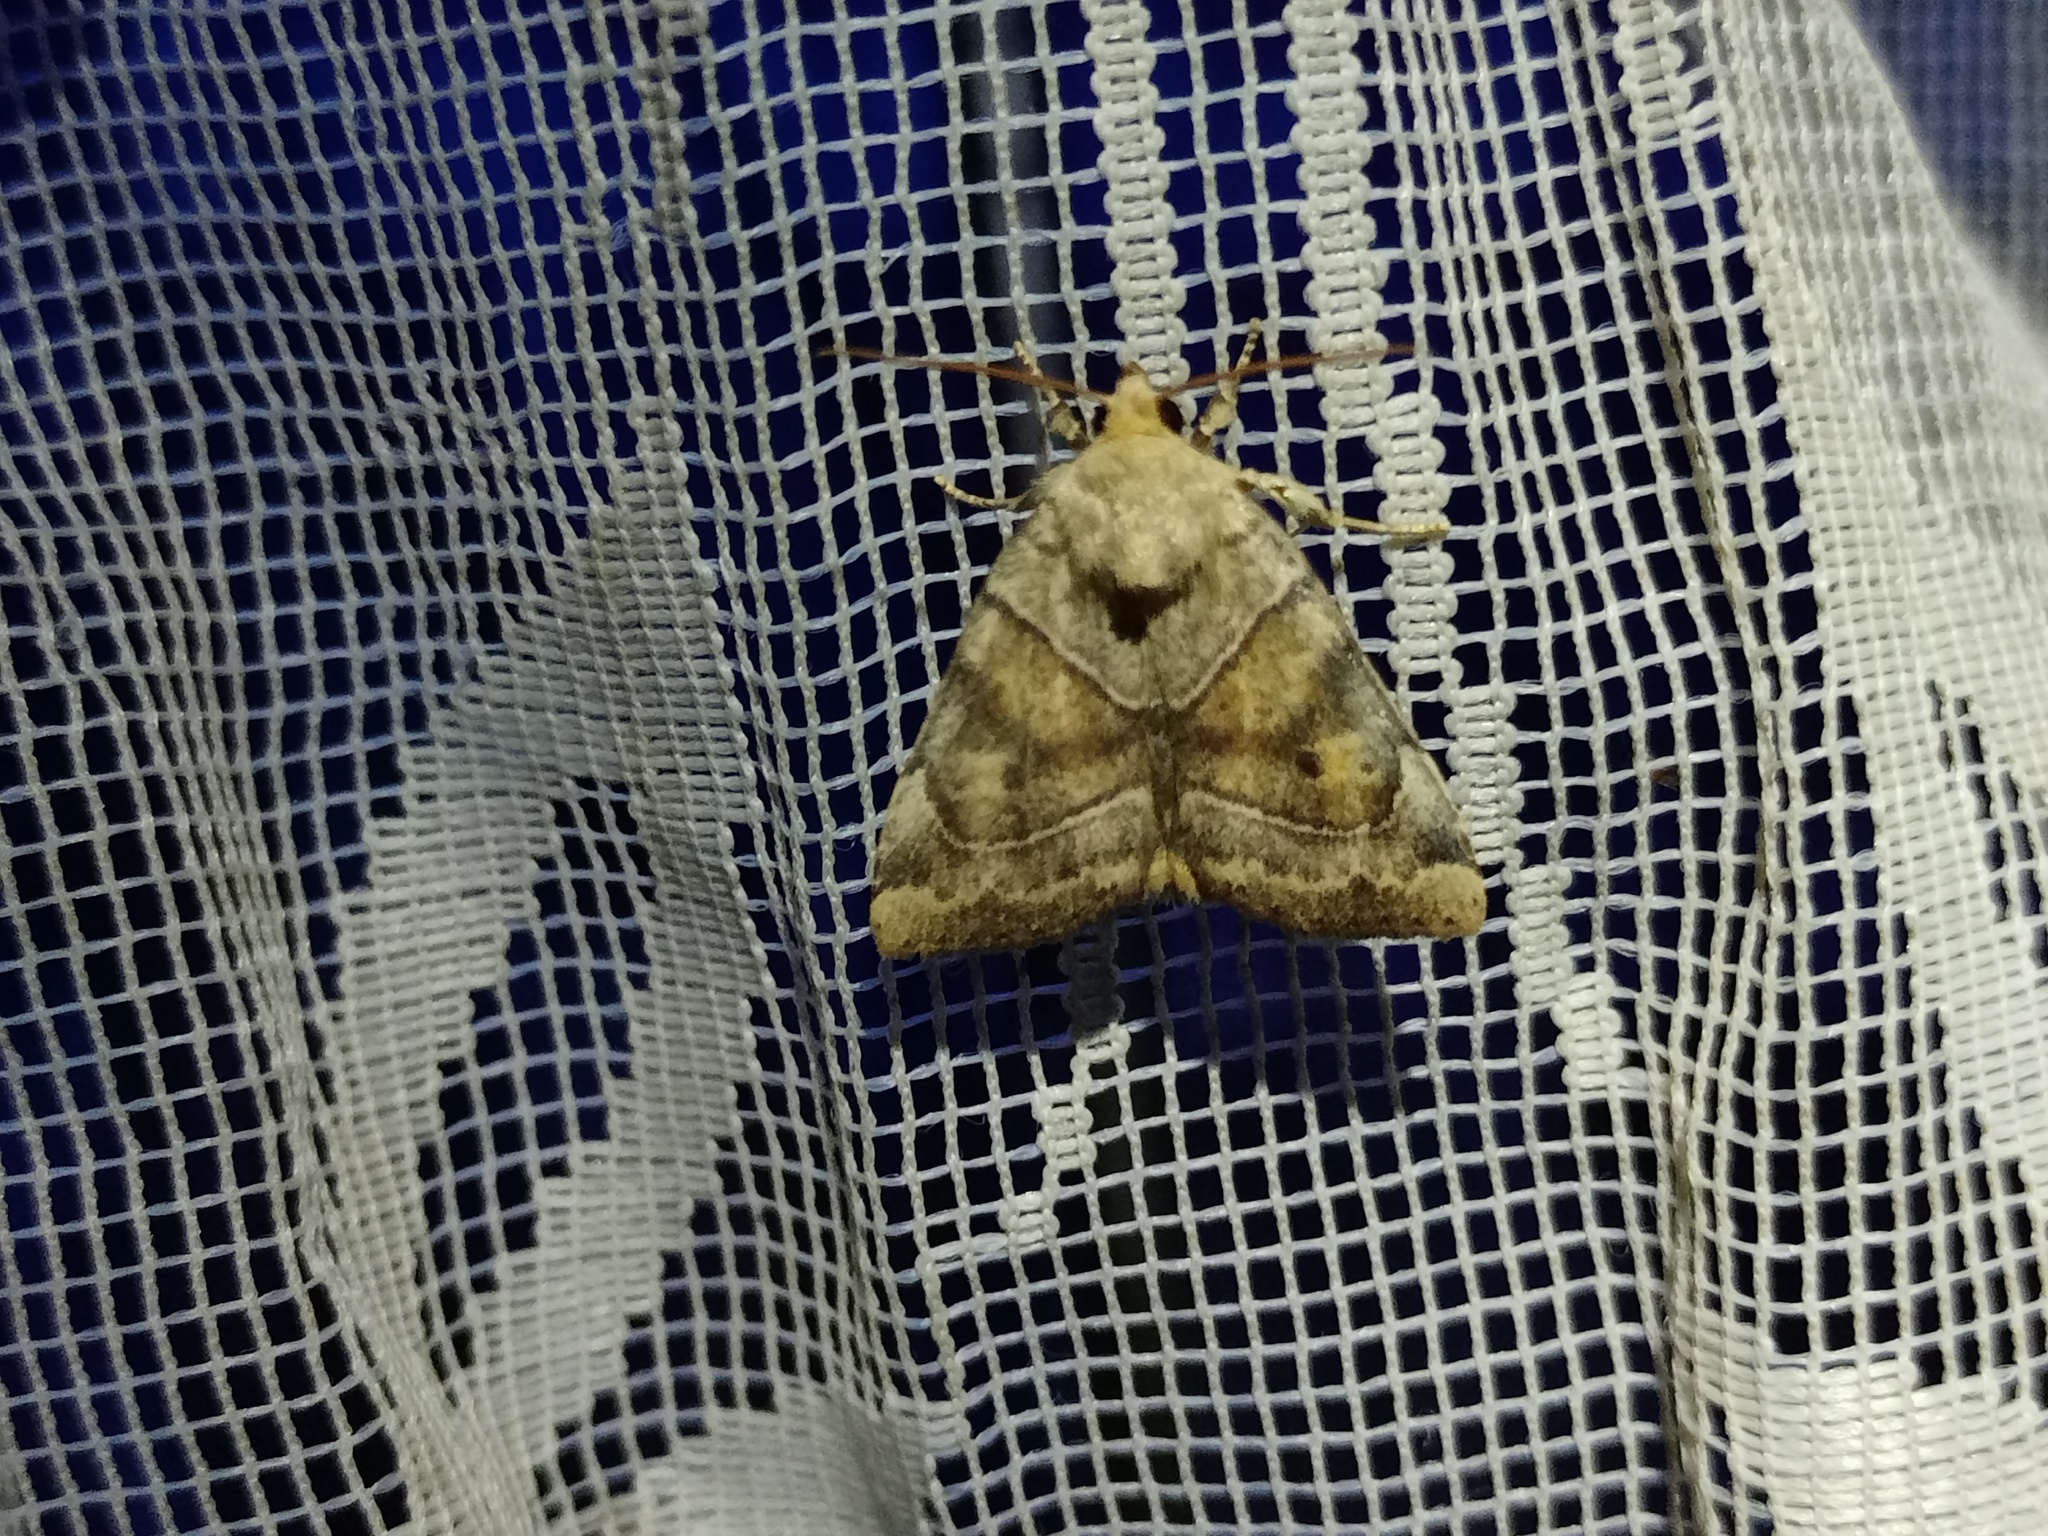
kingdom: Animalia
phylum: Arthropoda
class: Insecta
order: Lepidoptera
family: Noctuidae
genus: Cosmia
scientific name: Cosmia trapezina
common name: Dun-bar
